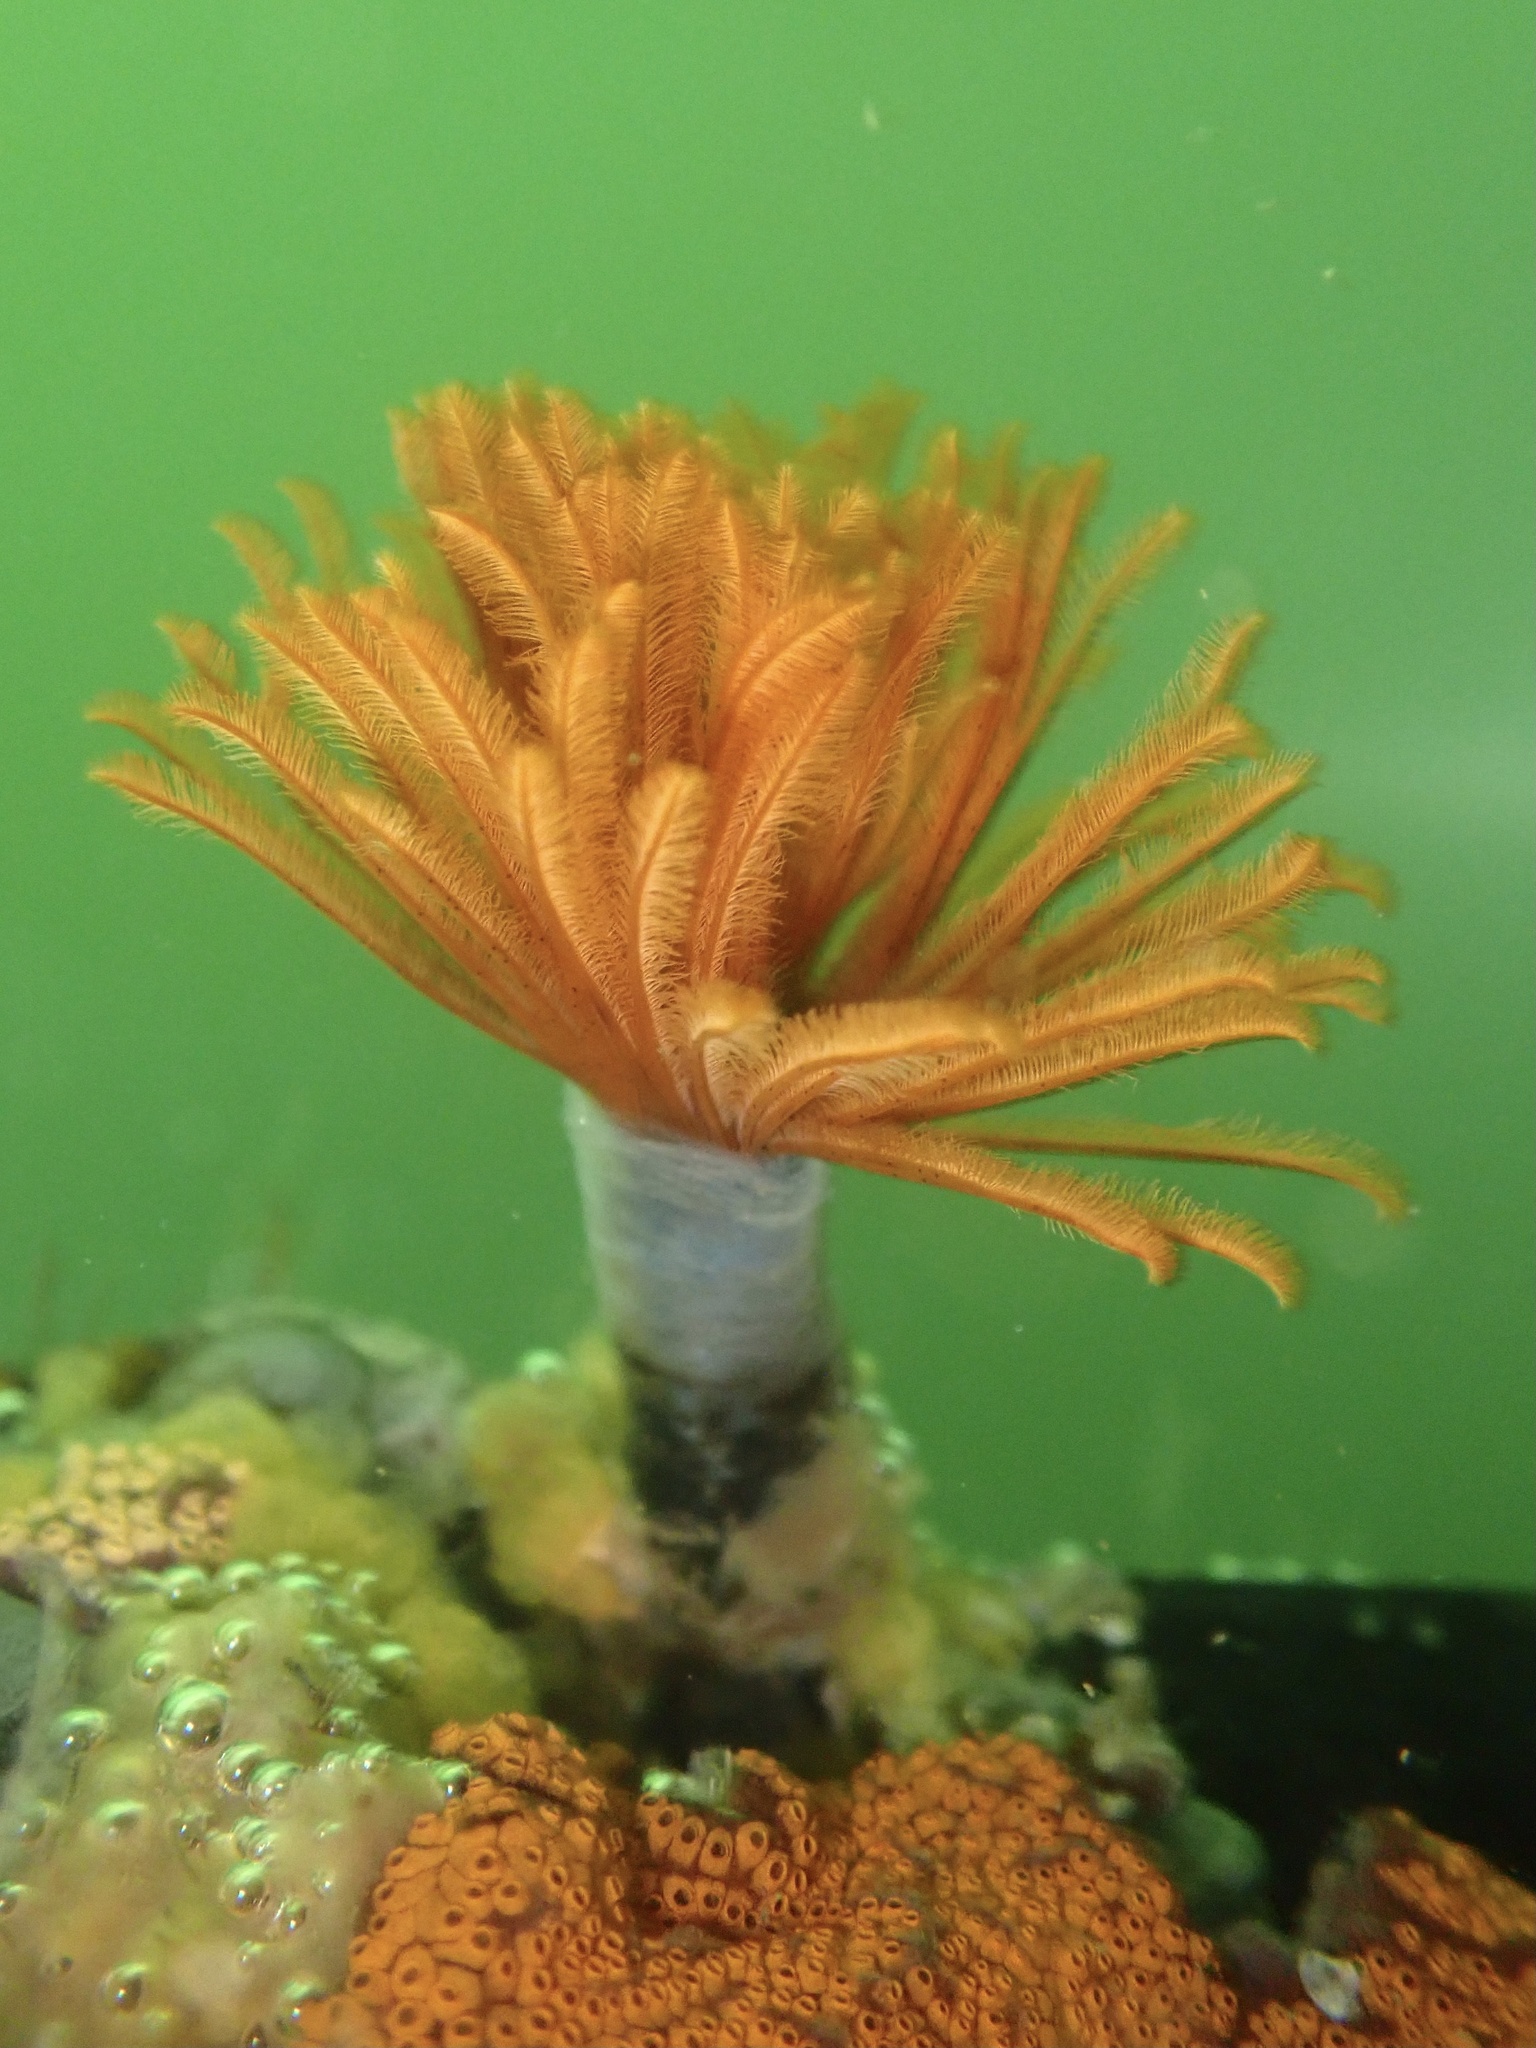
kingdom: Animalia
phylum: Annelida
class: Polychaeta
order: Sabellida
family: Sabellidae
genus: Eudistylia
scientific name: Eudistylia polymorpha
